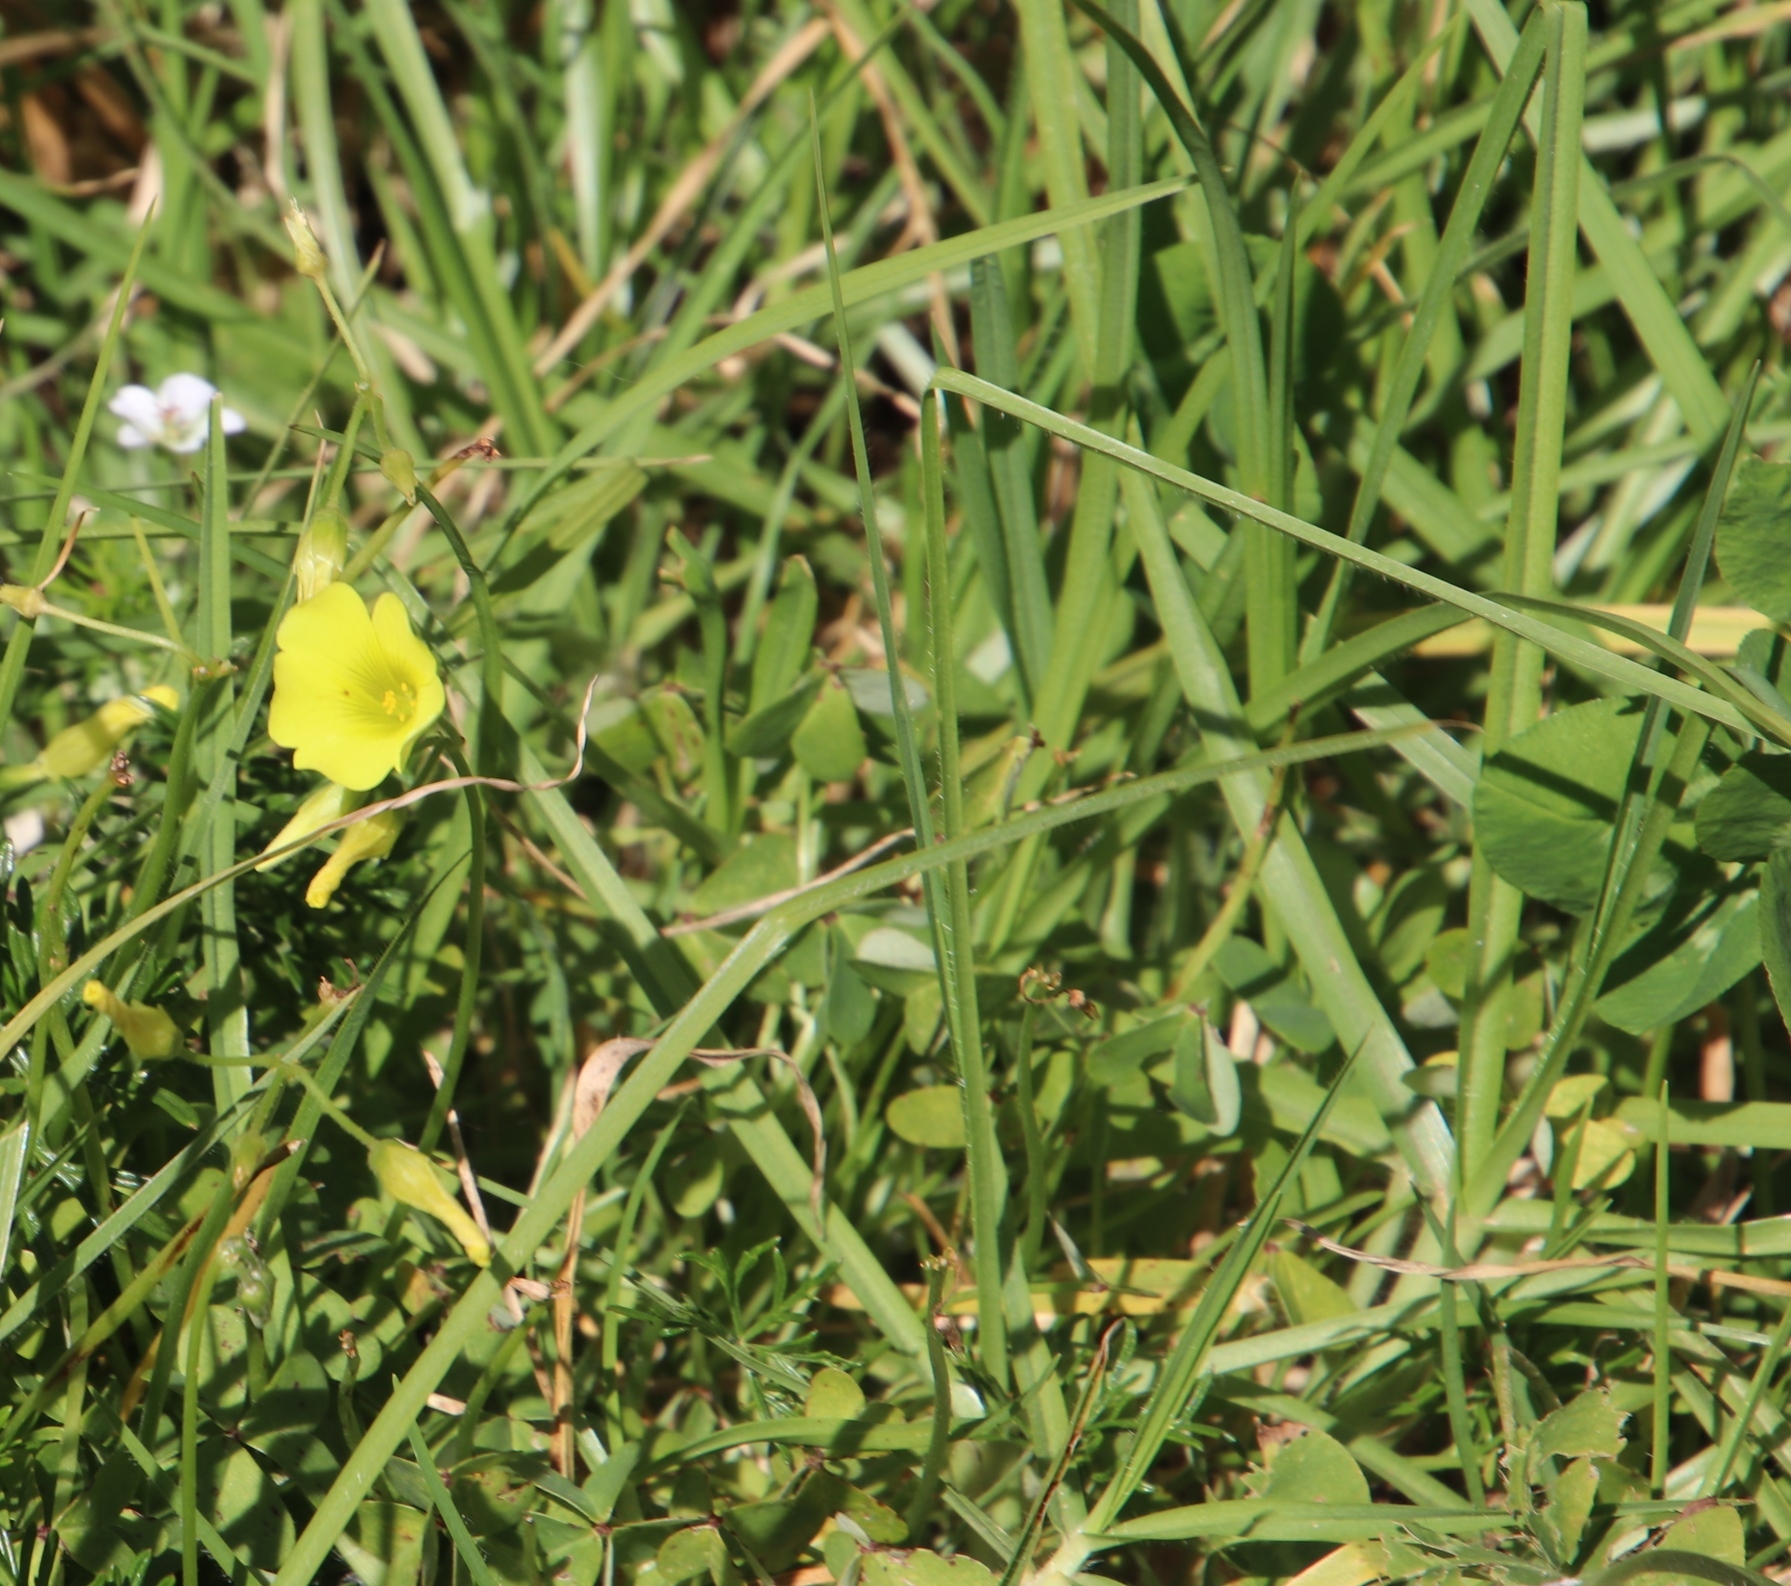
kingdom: Plantae
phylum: Tracheophyta
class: Magnoliopsida
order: Oxalidales
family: Oxalidaceae
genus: Oxalis
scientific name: Oxalis pes-caprae
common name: Bermuda-buttercup
